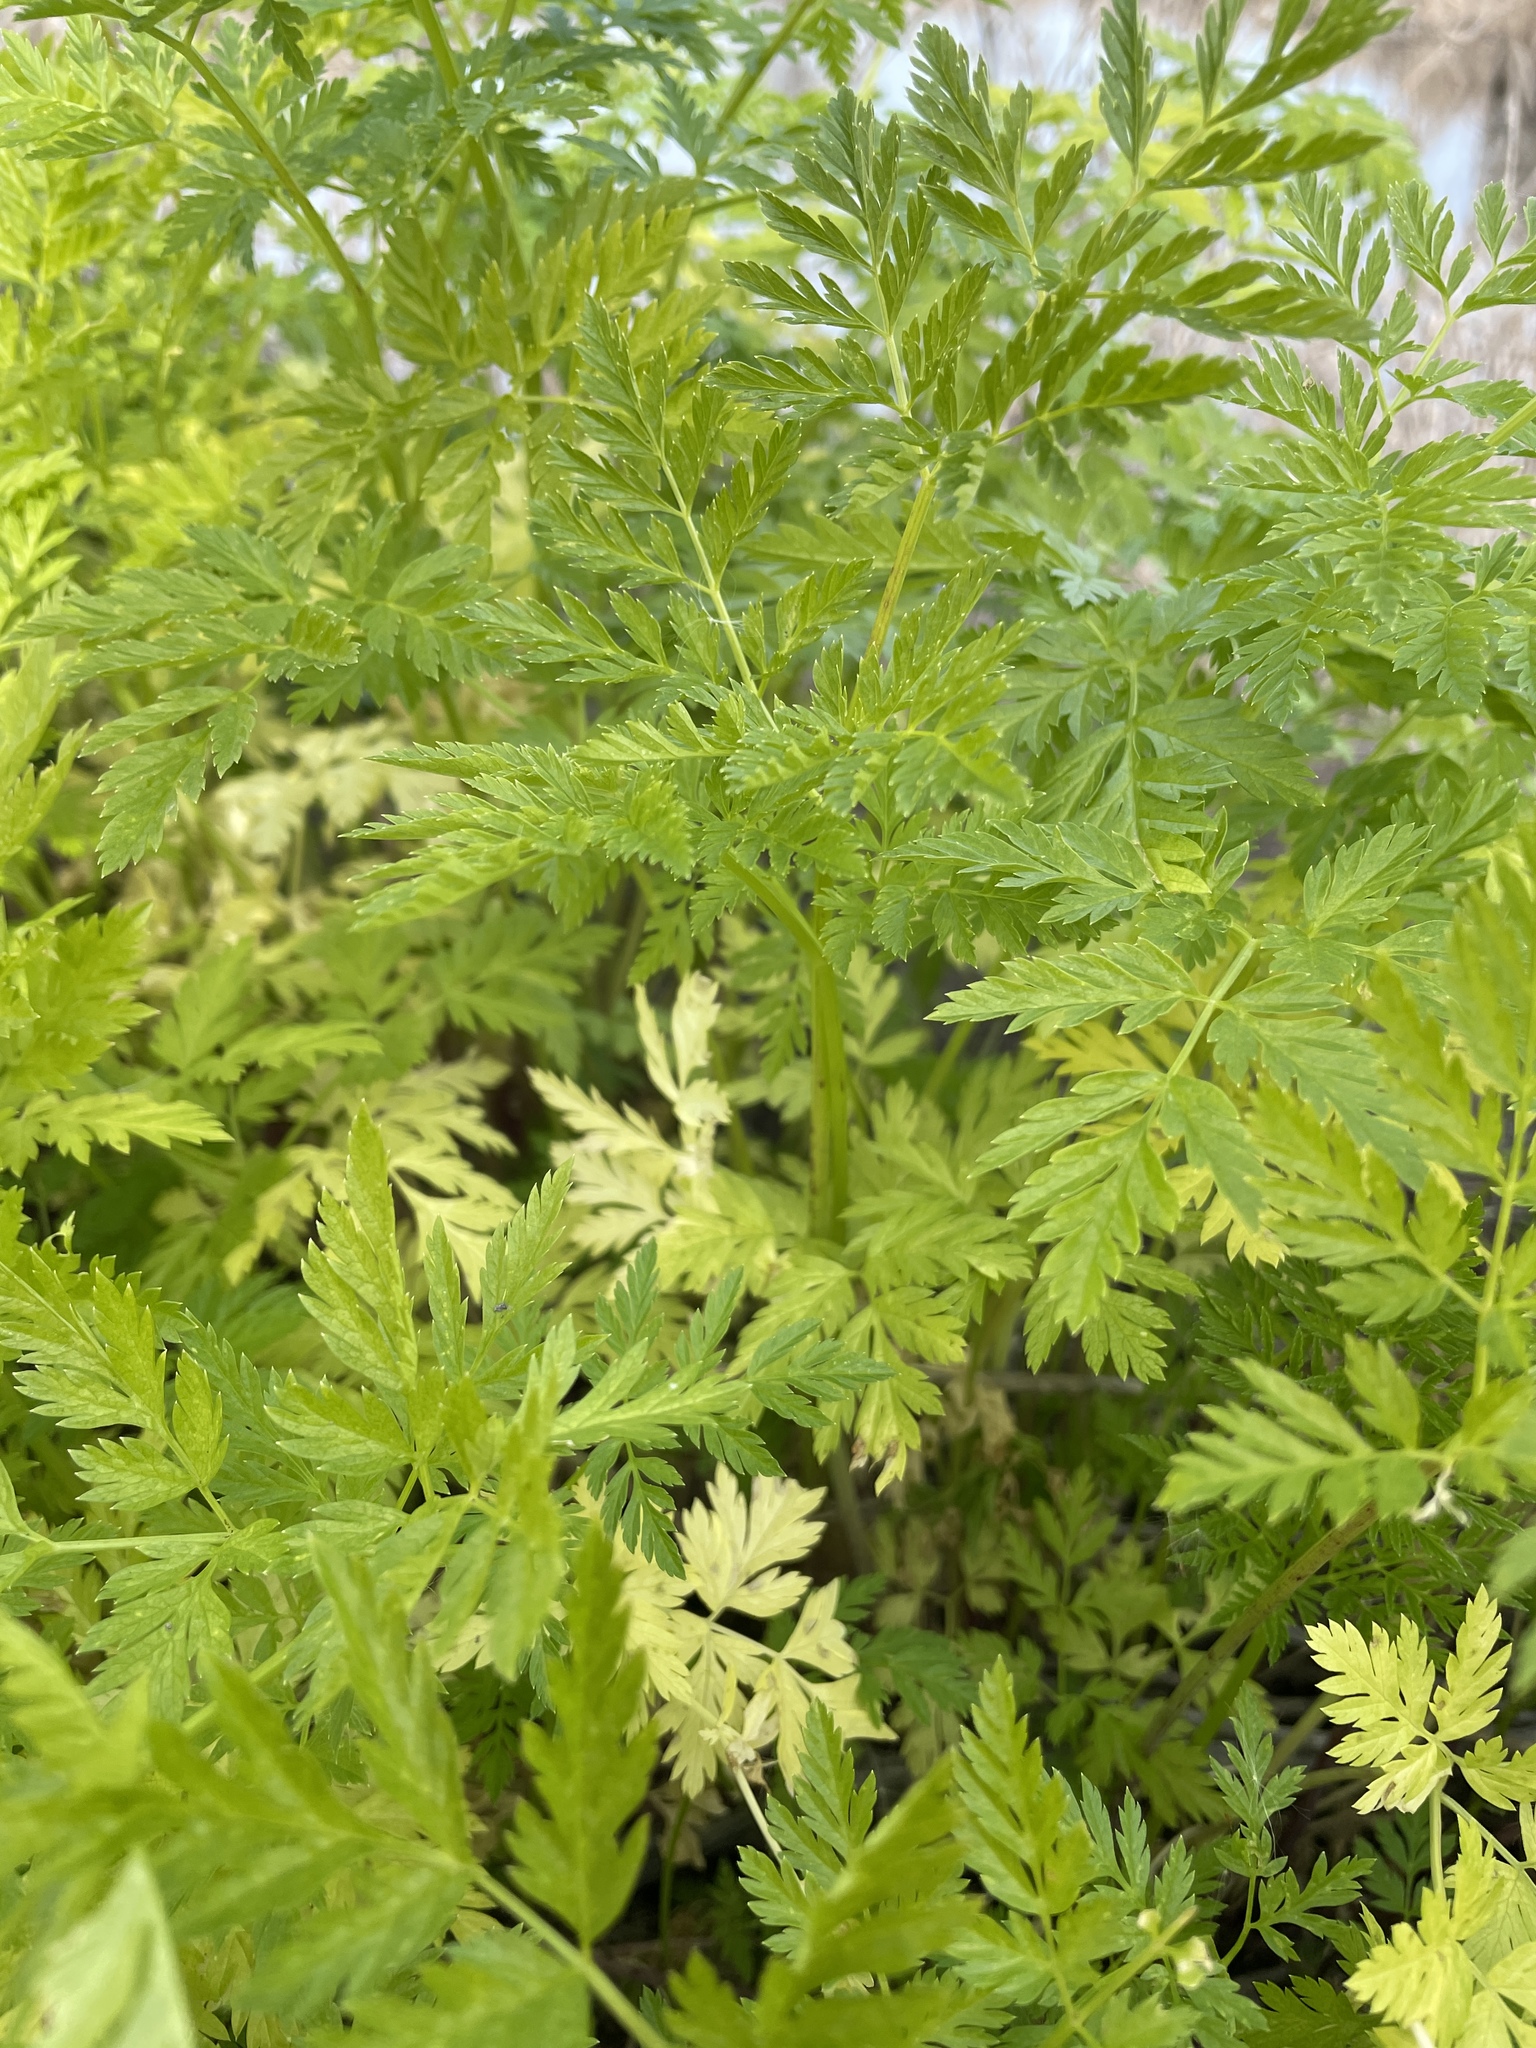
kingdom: Plantae
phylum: Tracheophyta
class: Magnoliopsida
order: Apiales
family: Apiaceae
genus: Conium
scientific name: Conium maculatum
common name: Hemlock
